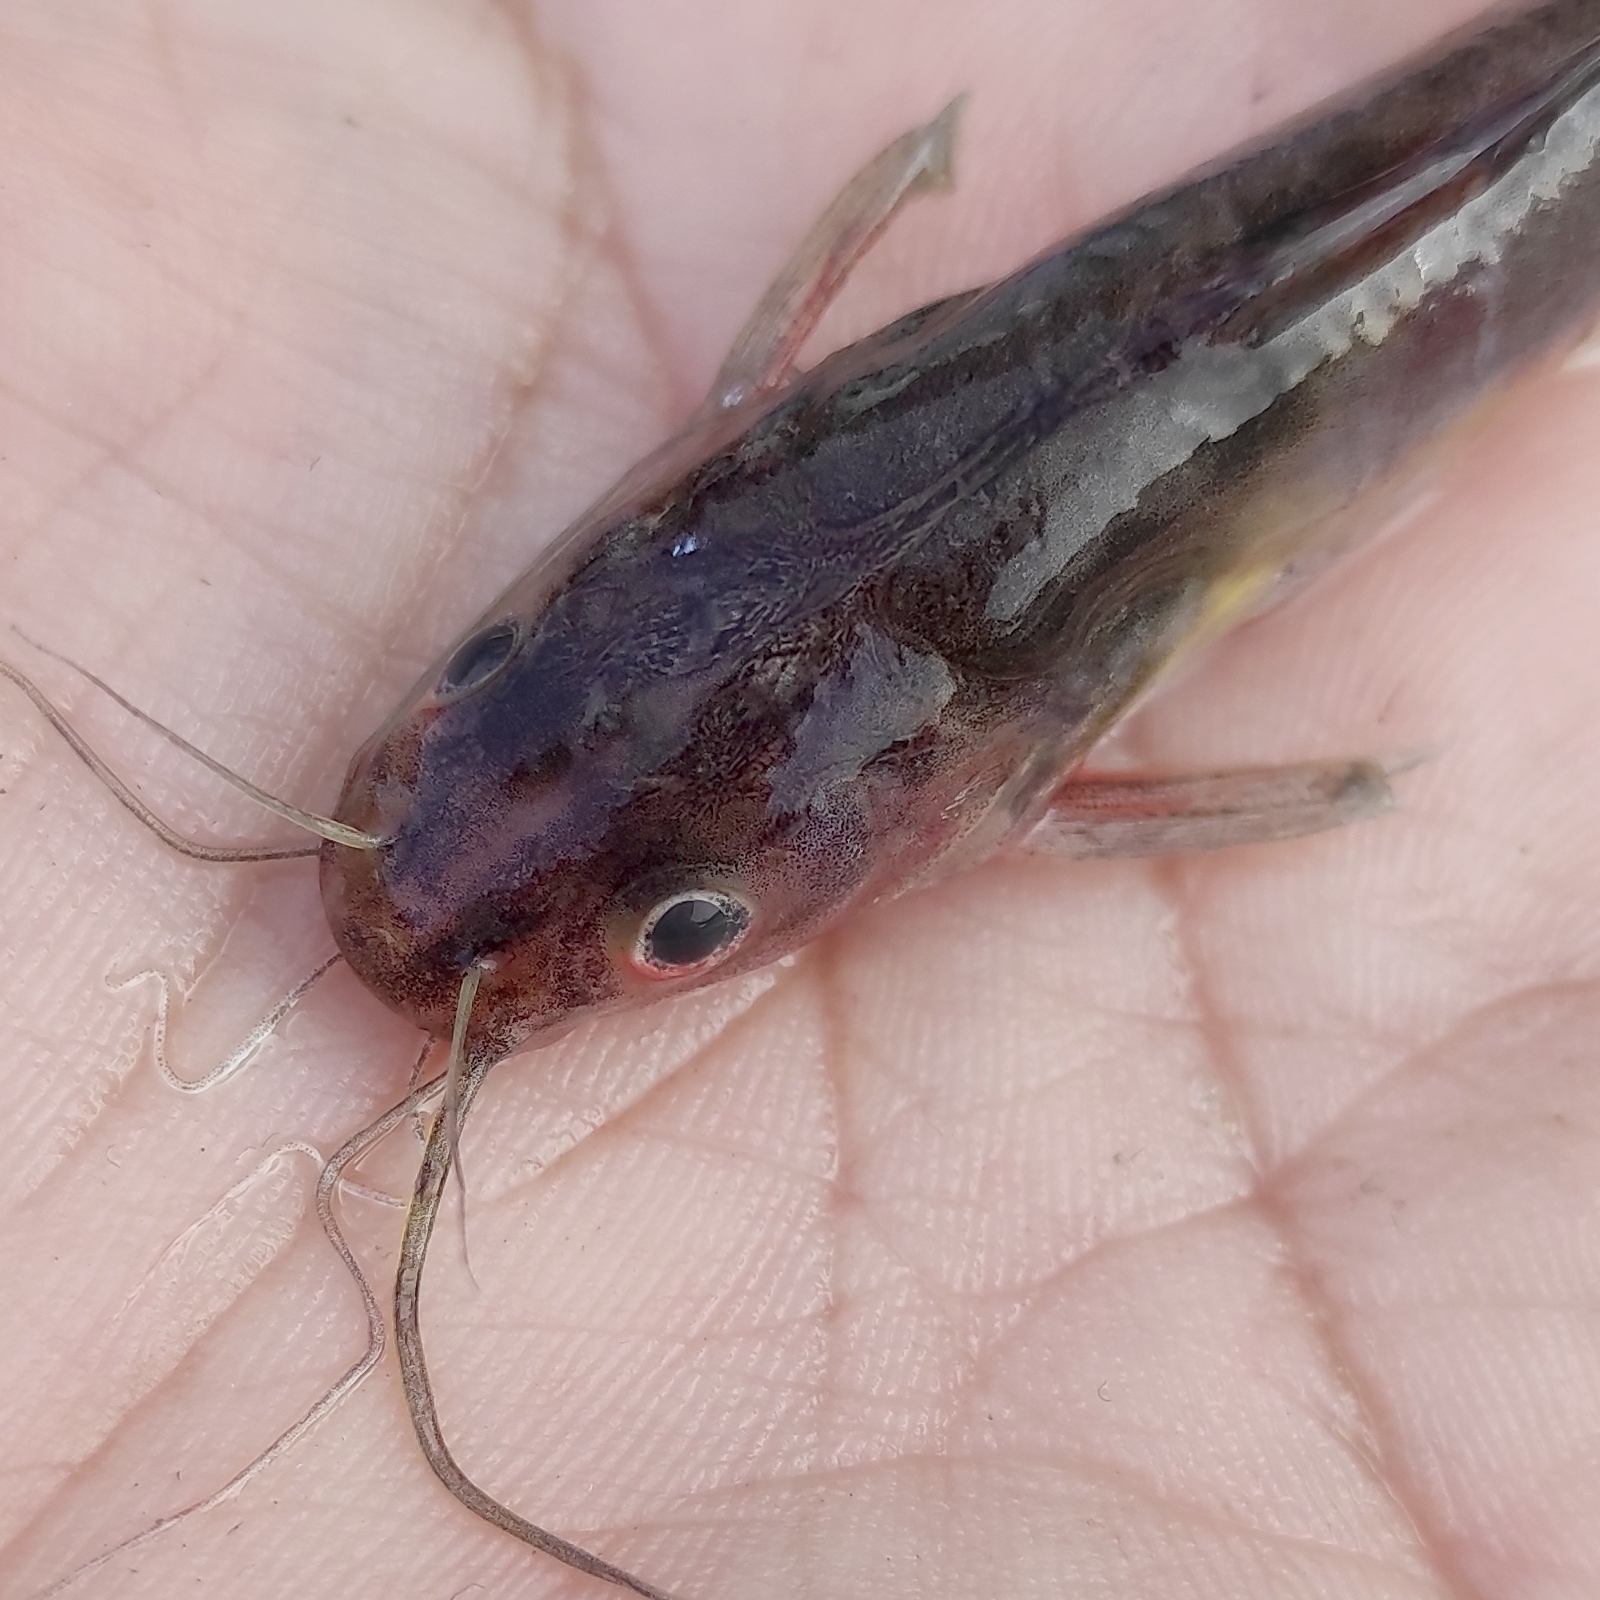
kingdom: Animalia
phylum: Chordata
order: Siluriformes
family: Bagridae
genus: Mystus
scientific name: Mystus nigriceps
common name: Twospot catfish
